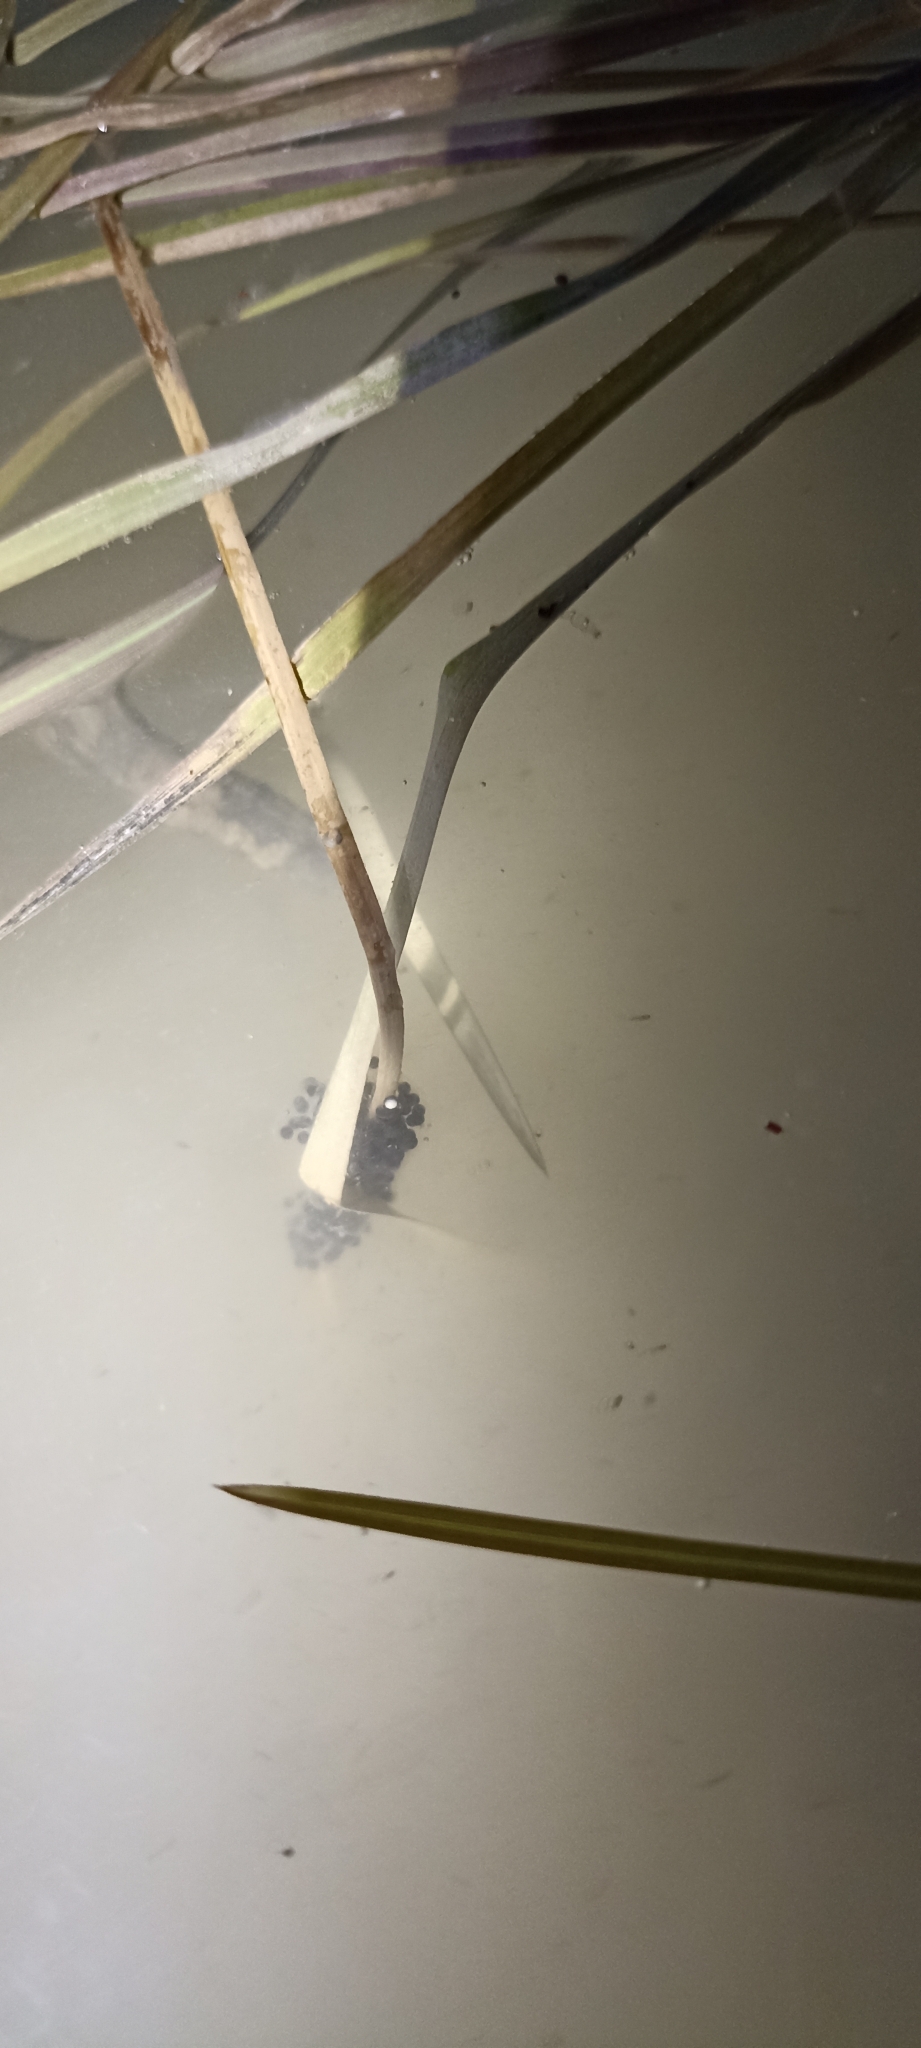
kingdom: Animalia
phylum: Chordata
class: Amphibia
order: Anura
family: Pelodytidae
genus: Pelodytes
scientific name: Pelodytes punctatus
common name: Parsley frog
